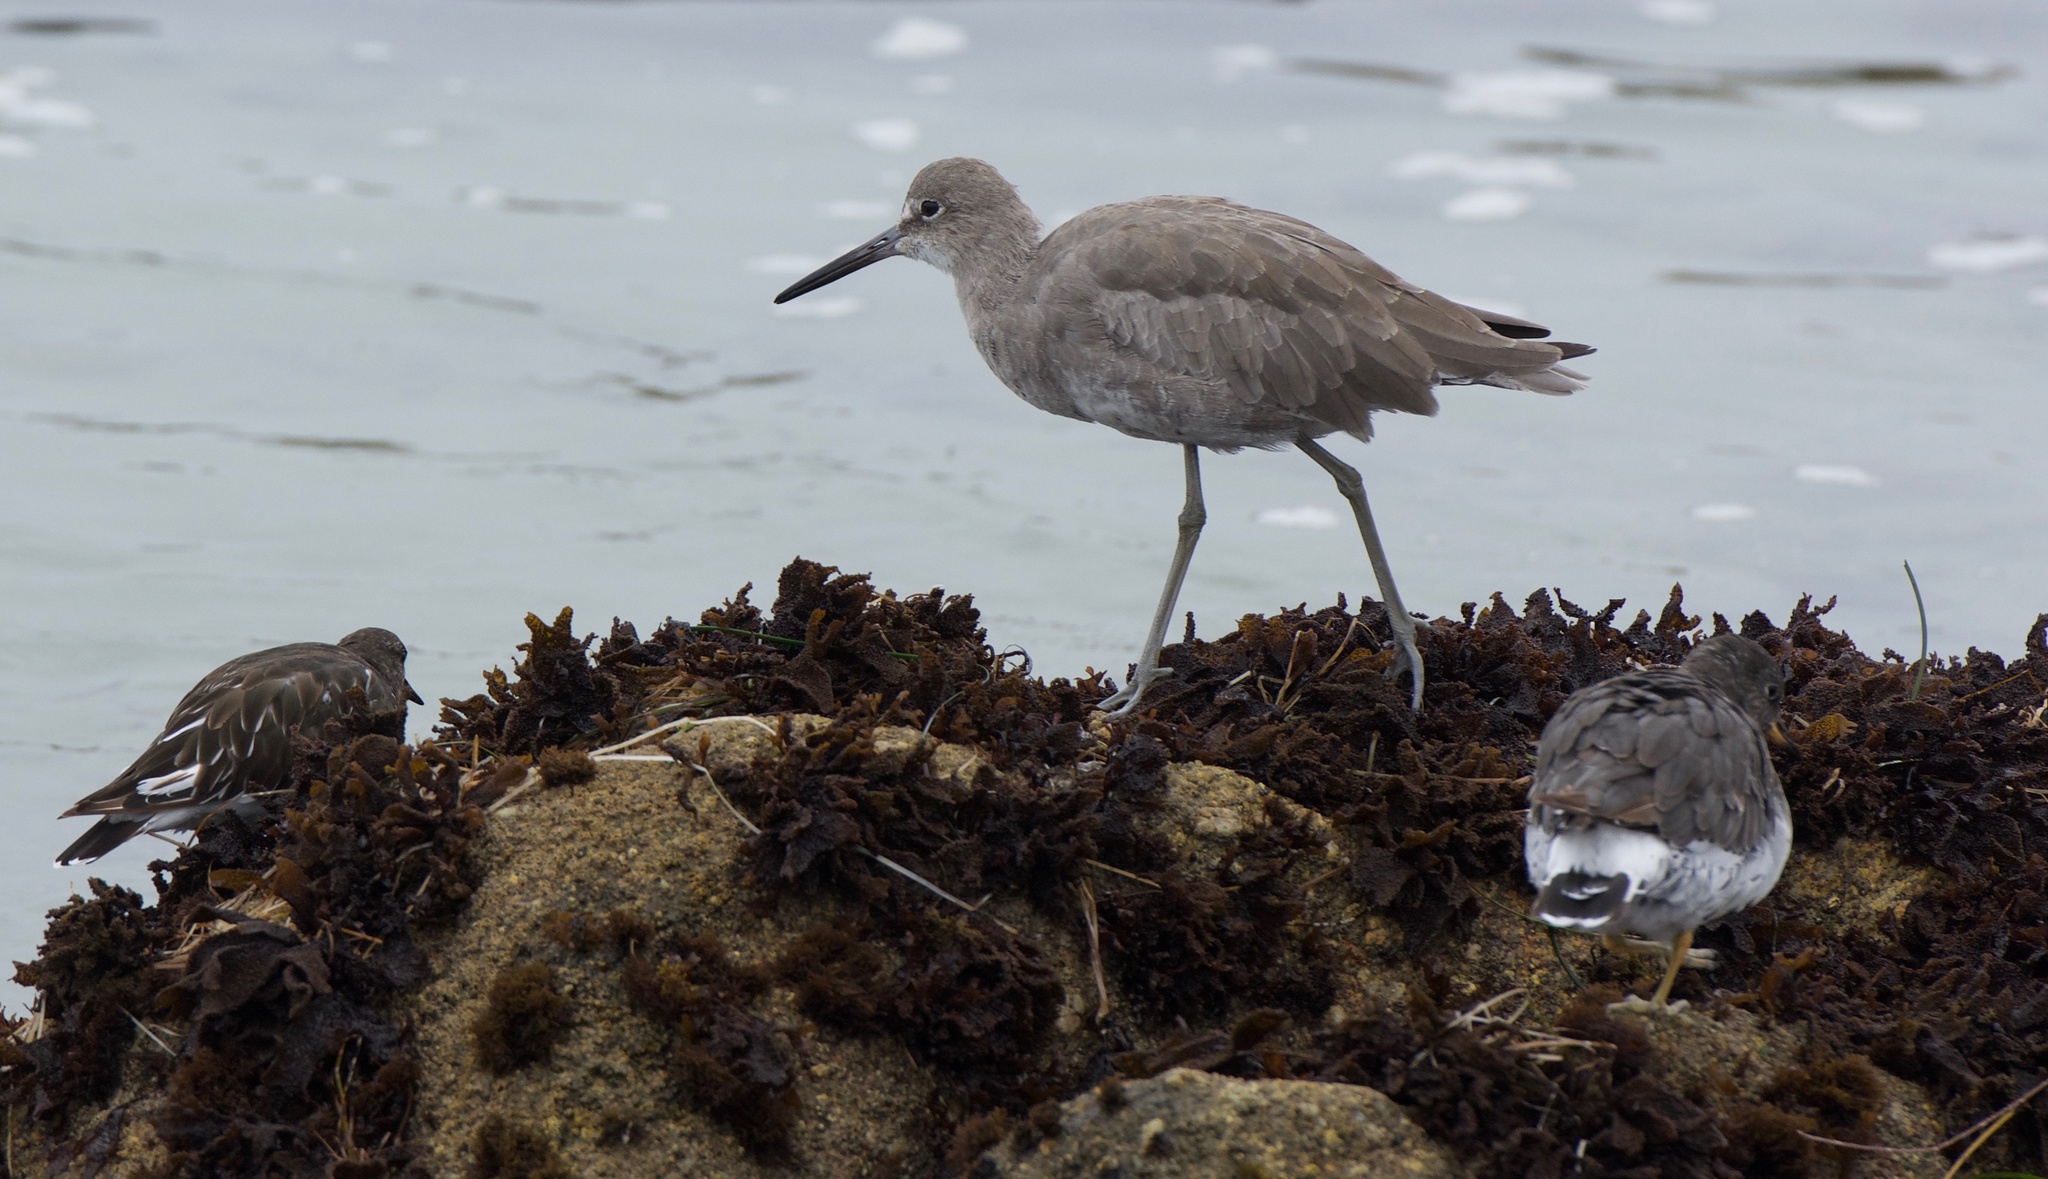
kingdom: Animalia
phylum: Chordata
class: Aves
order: Charadriiformes
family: Scolopacidae
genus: Tringa
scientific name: Tringa semipalmata
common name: Willet
